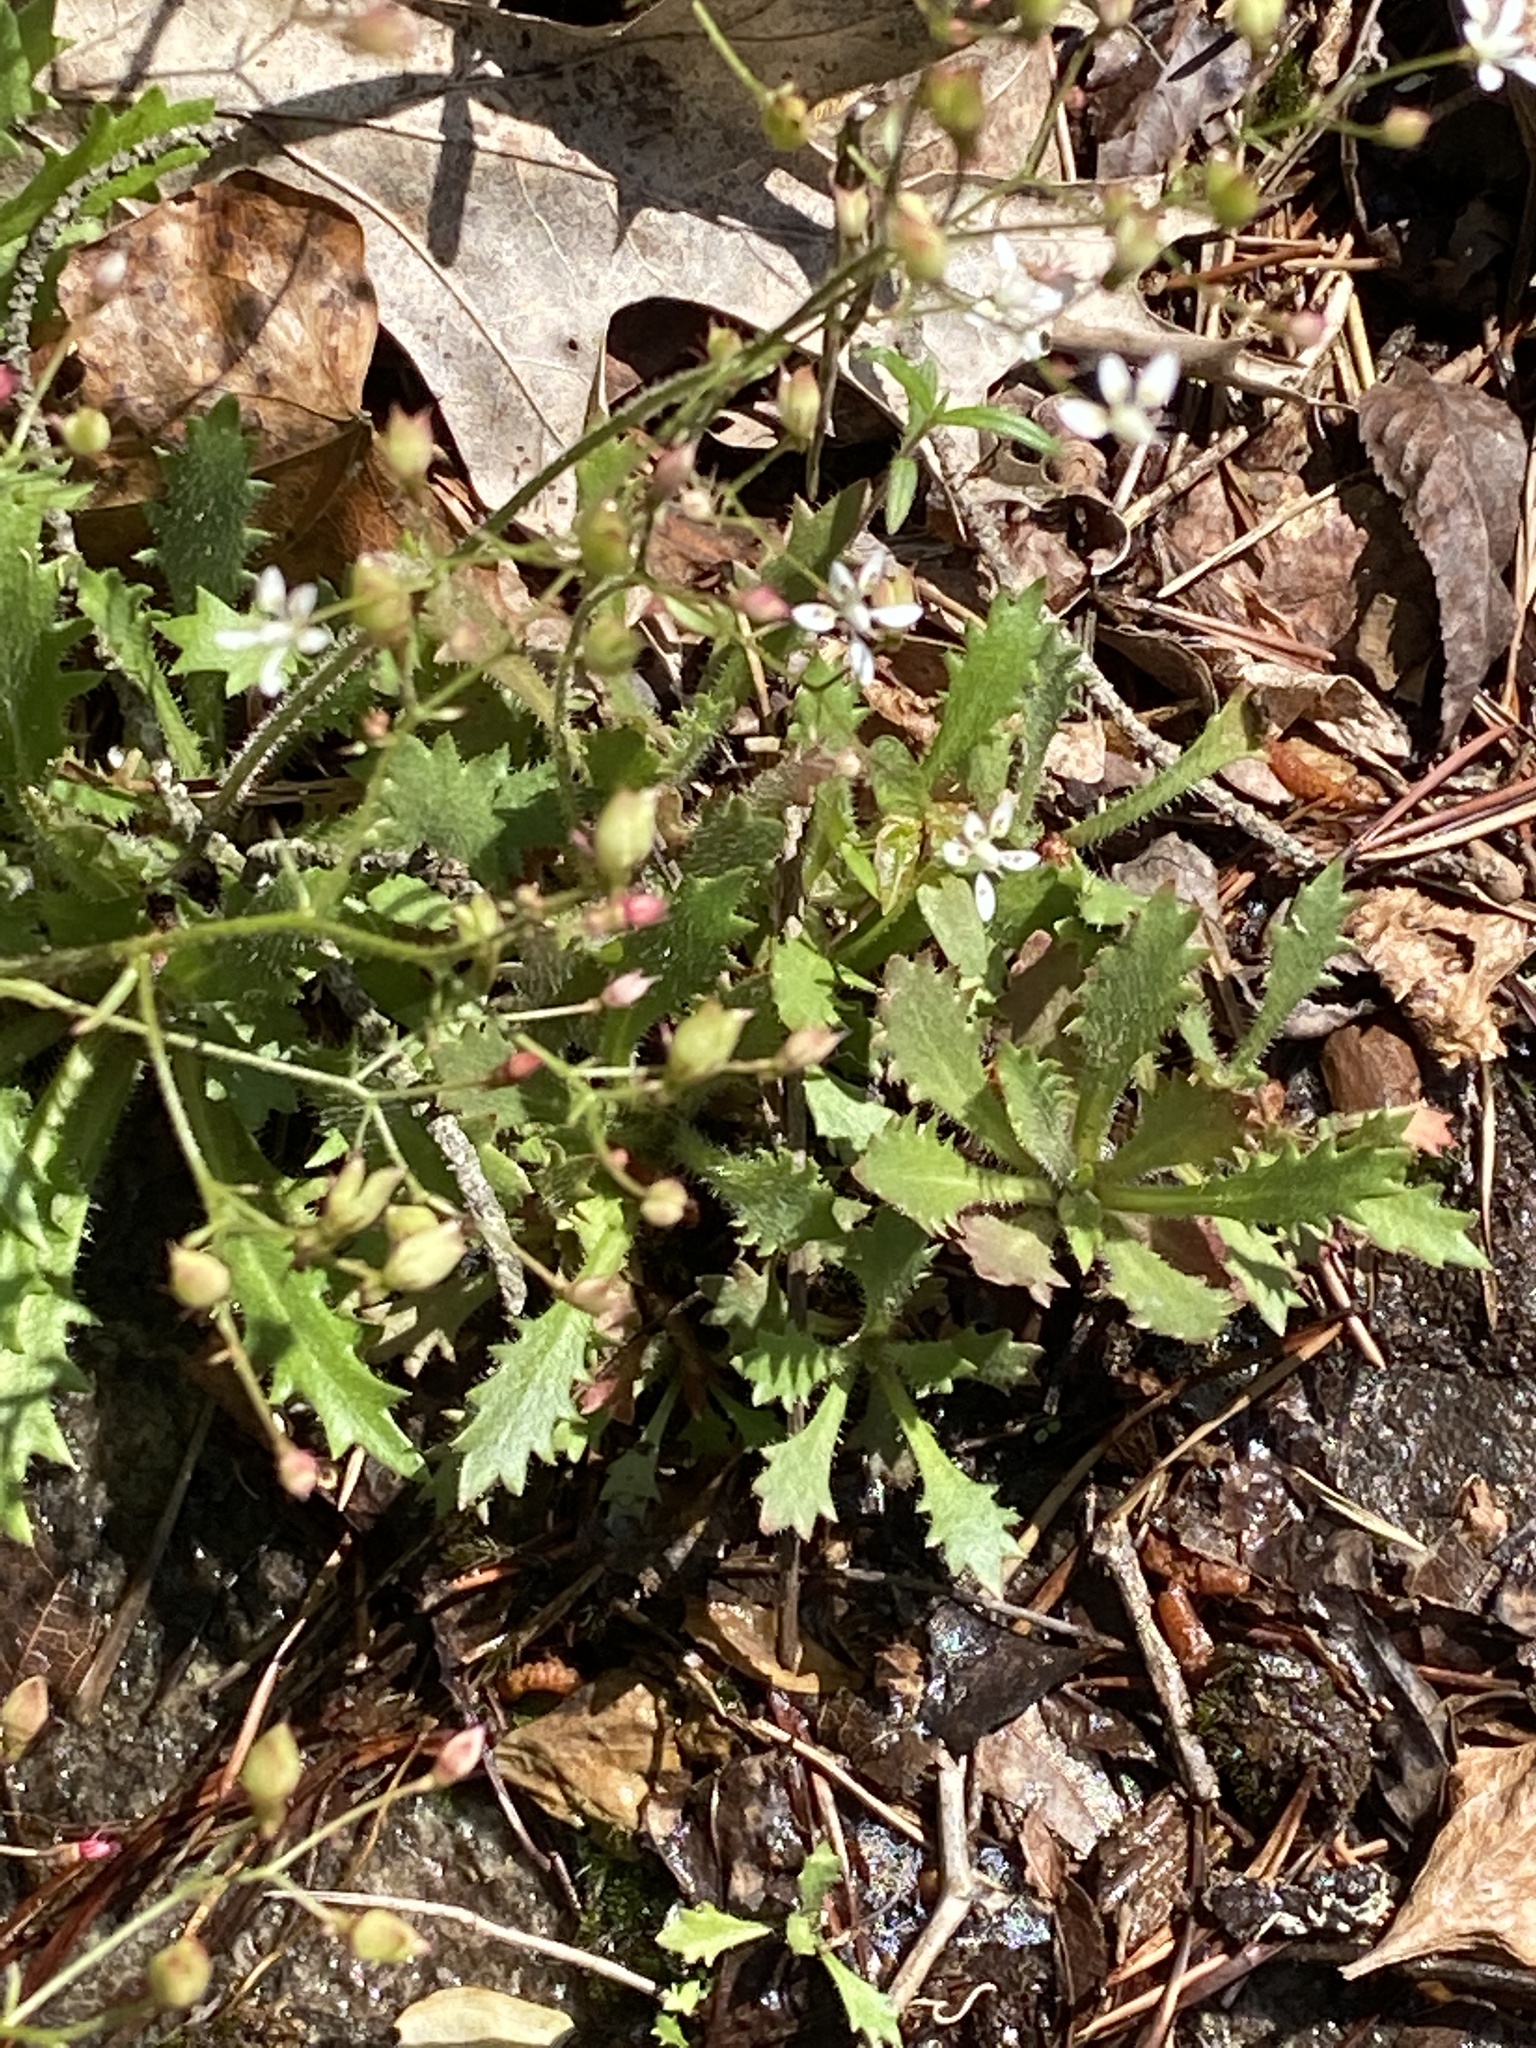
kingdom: Plantae
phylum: Tracheophyta
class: Magnoliopsida
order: Saxifragales
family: Saxifragaceae
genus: Micranthes
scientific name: Micranthes petiolaris
